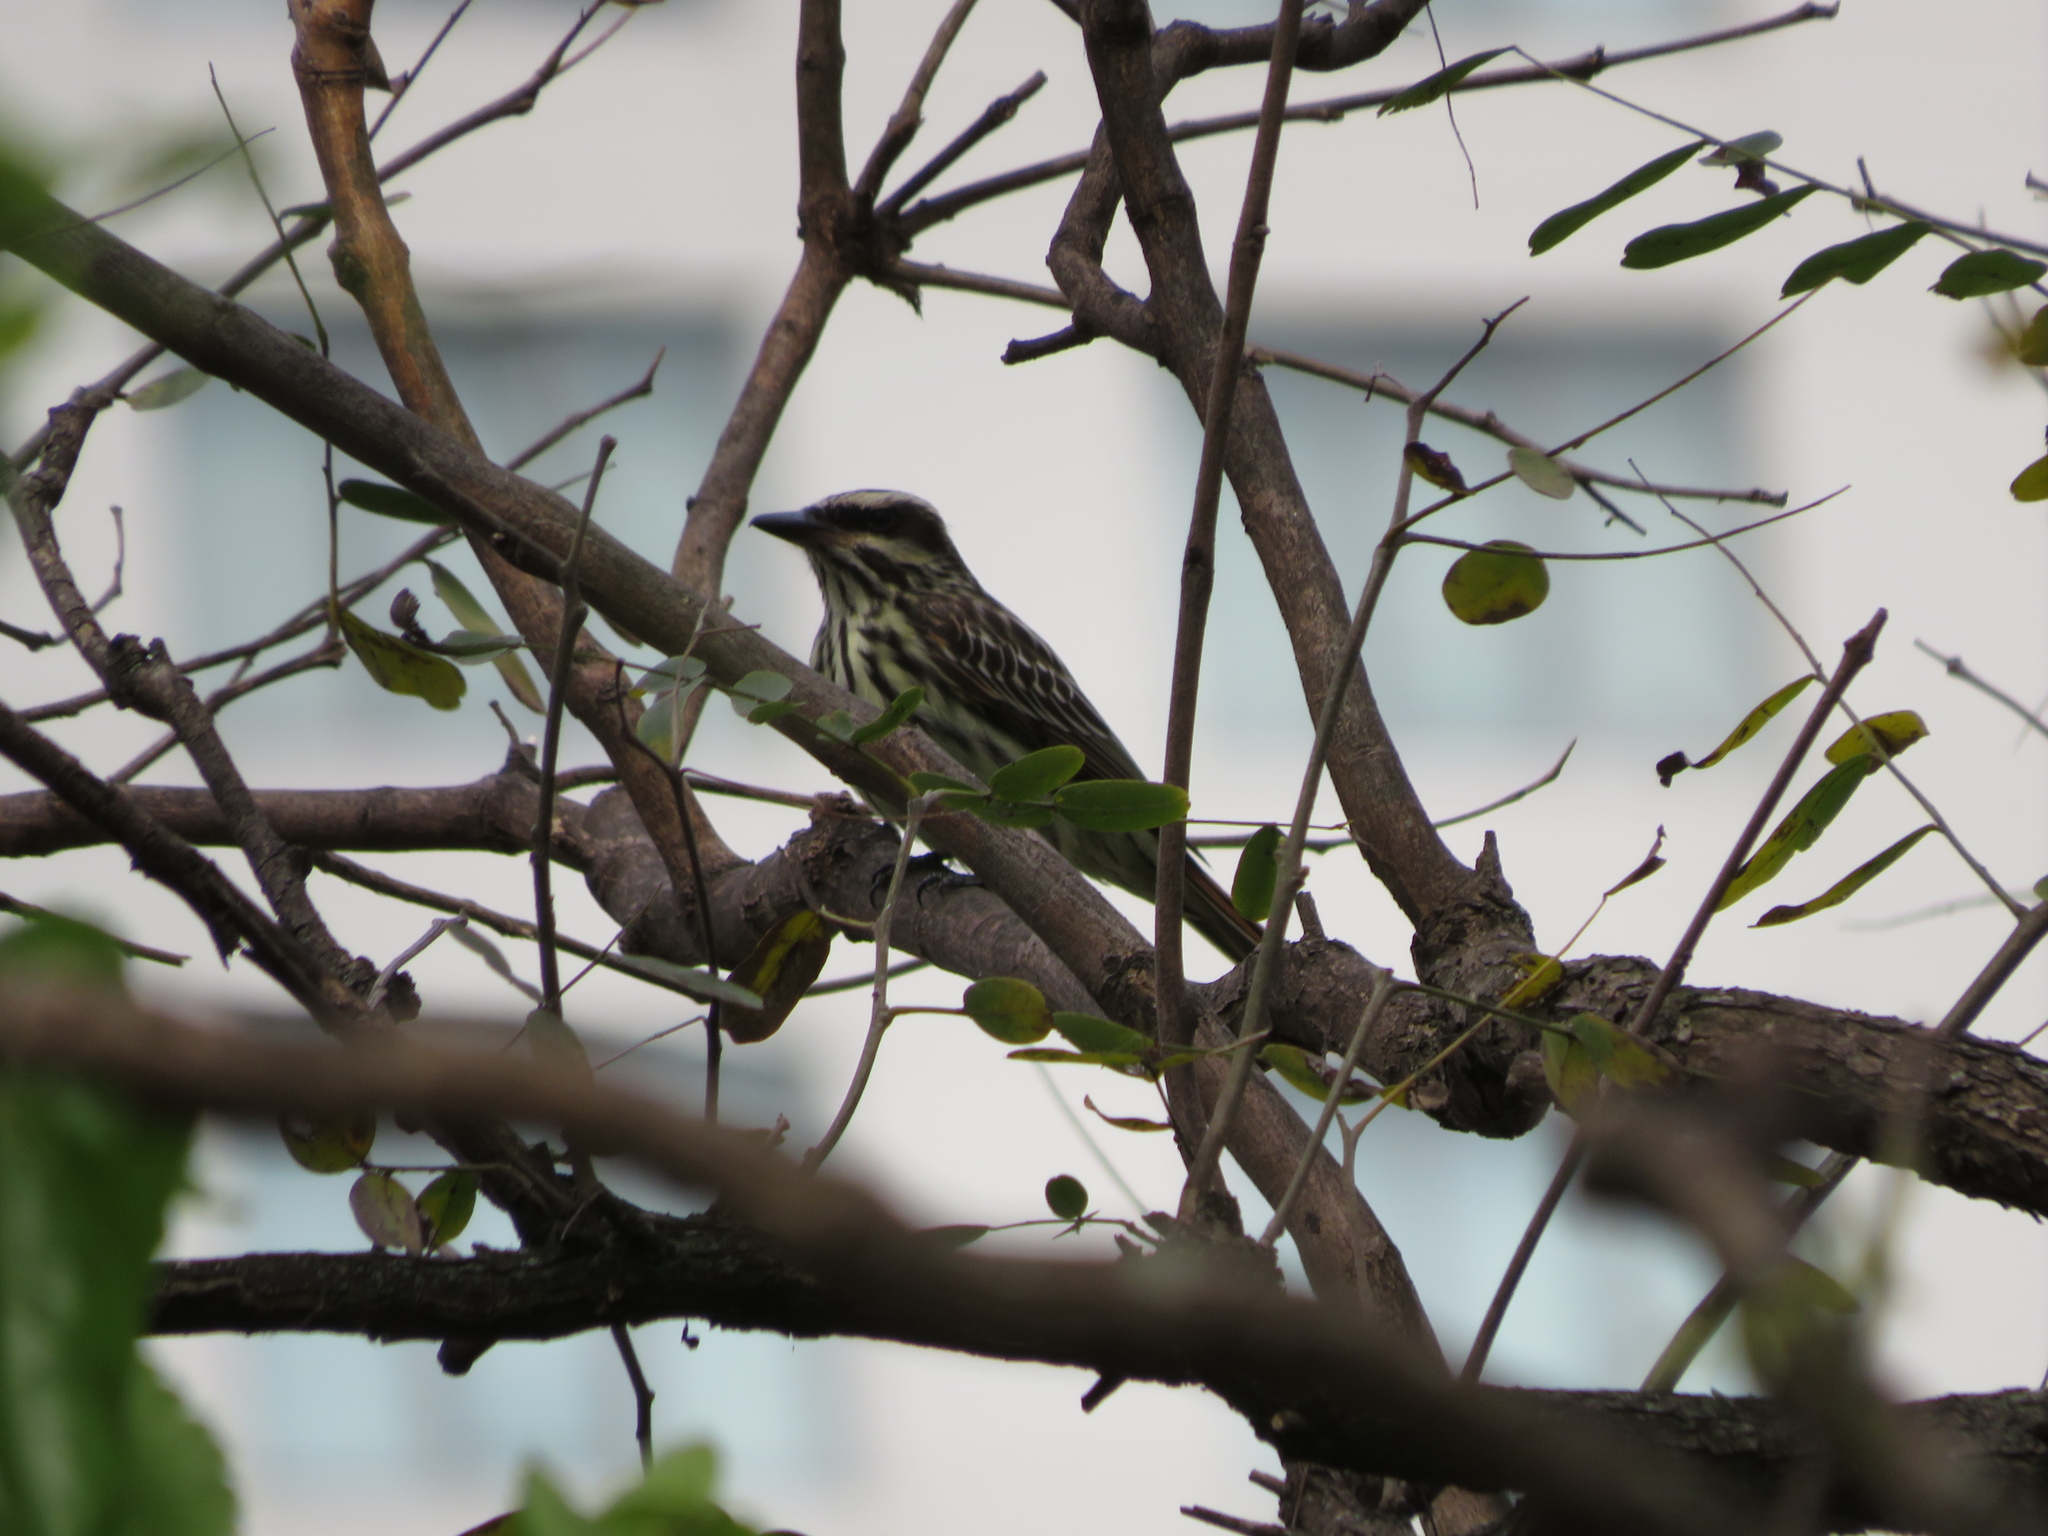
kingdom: Animalia
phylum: Chordata
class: Aves
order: Passeriformes
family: Tyrannidae
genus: Myiodynastes
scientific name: Myiodynastes maculatus
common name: Streaked flycatcher
